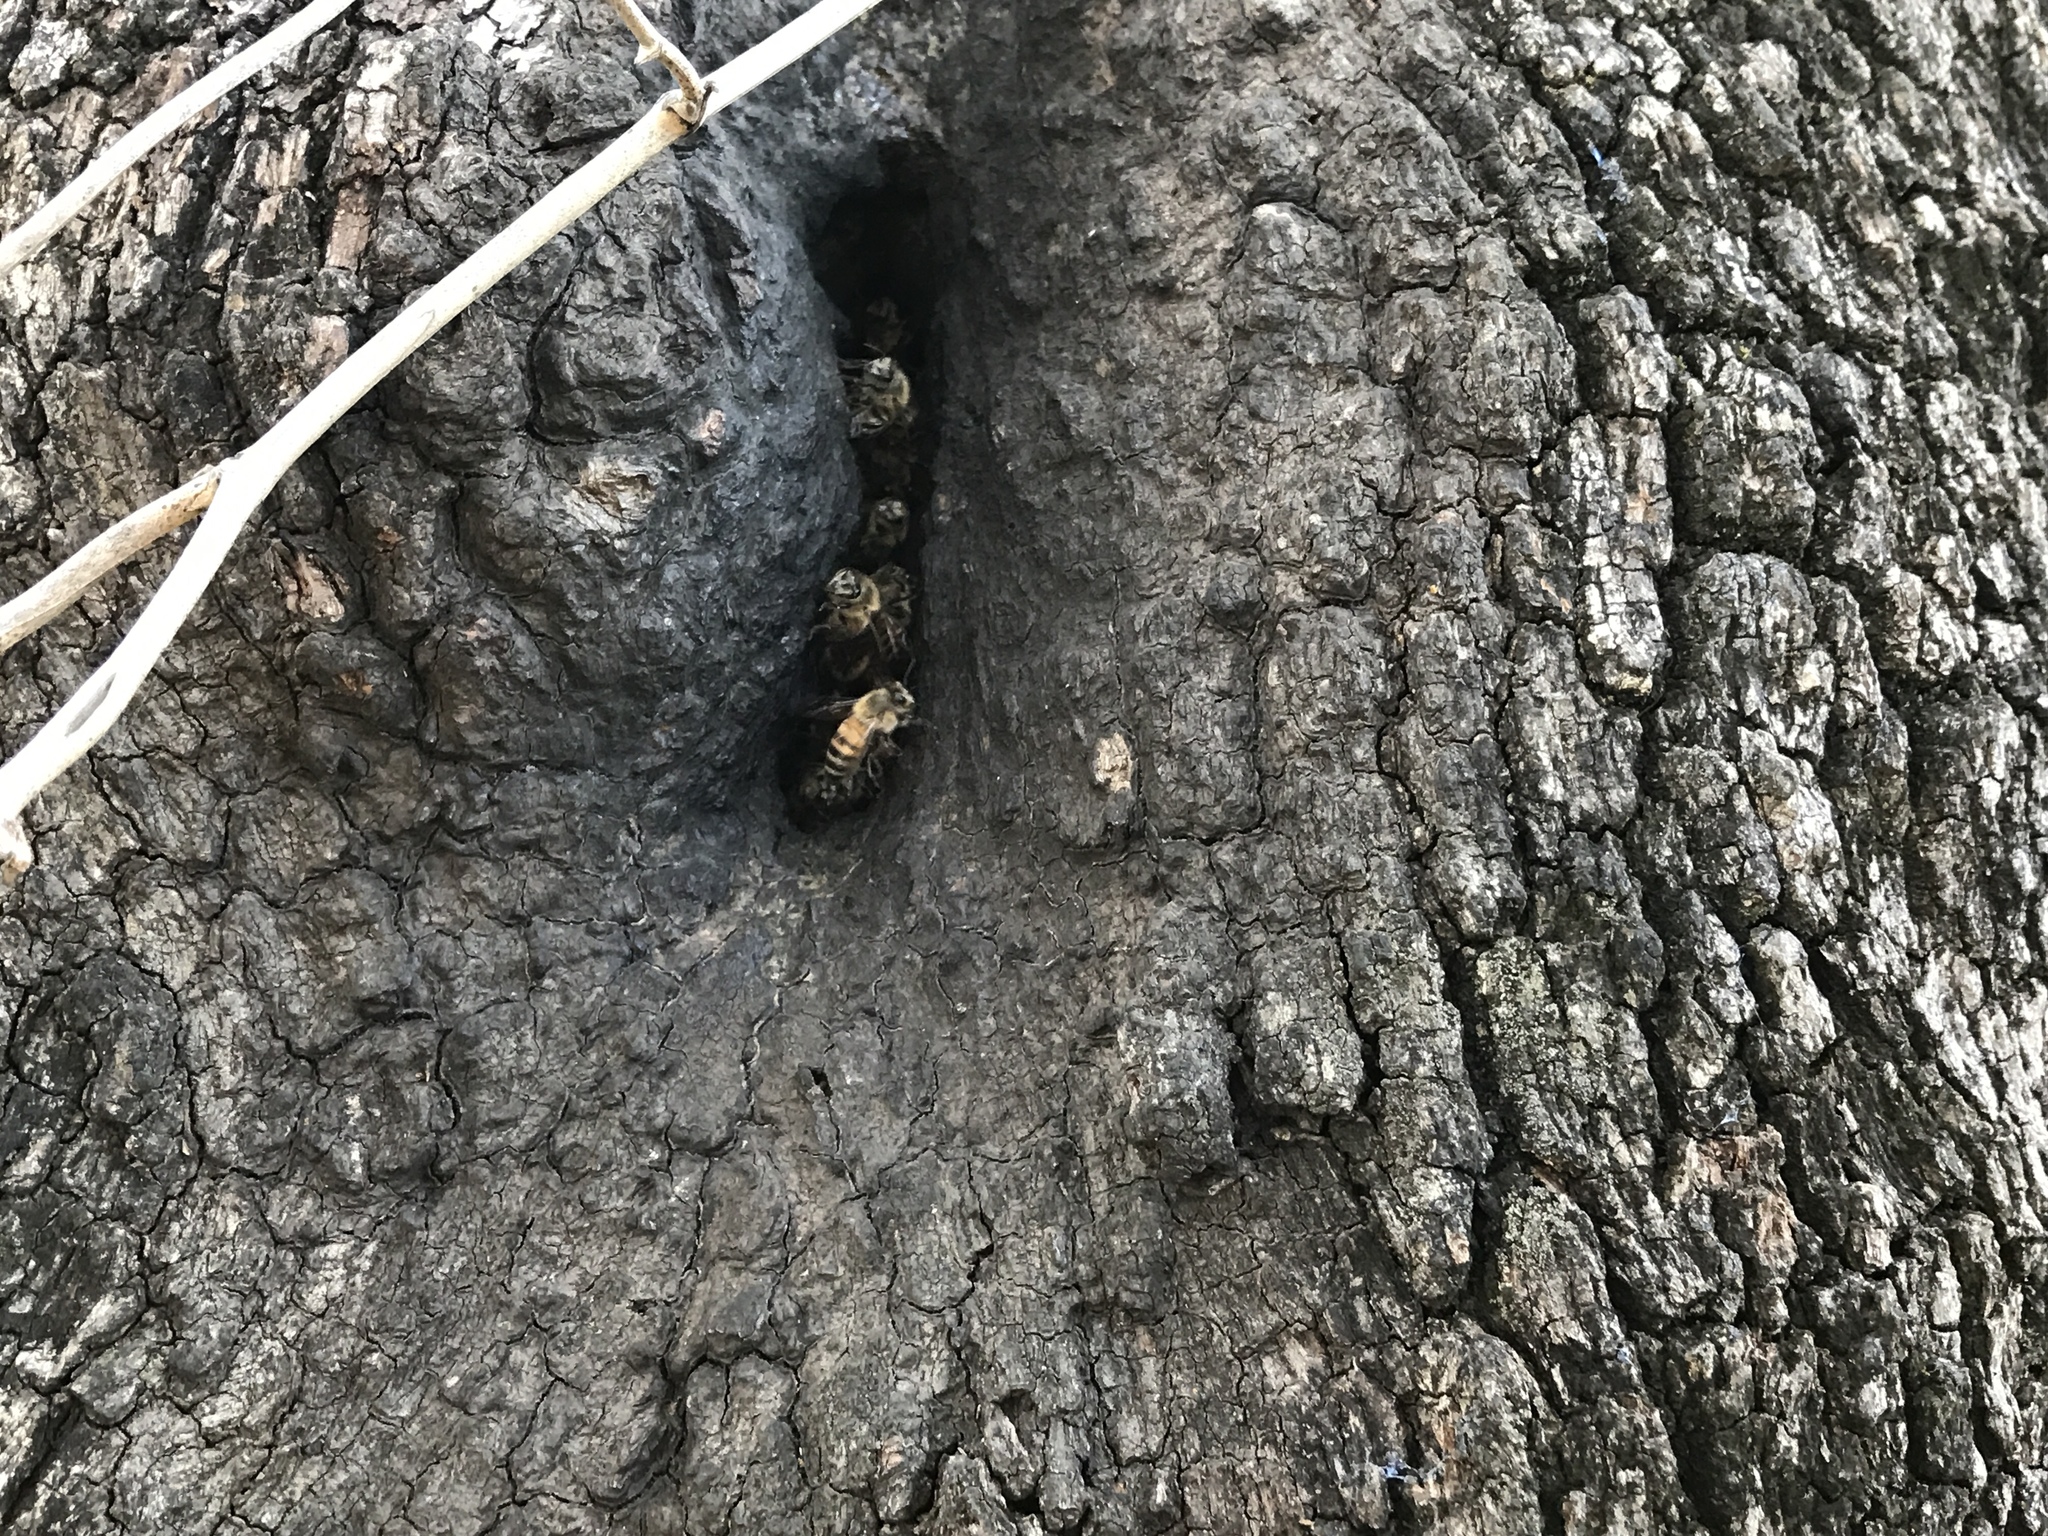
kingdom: Animalia
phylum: Arthropoda
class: Insecta
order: Hymenoptera
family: Apidae
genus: Apis
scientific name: Apis mellifera
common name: Honey bee
